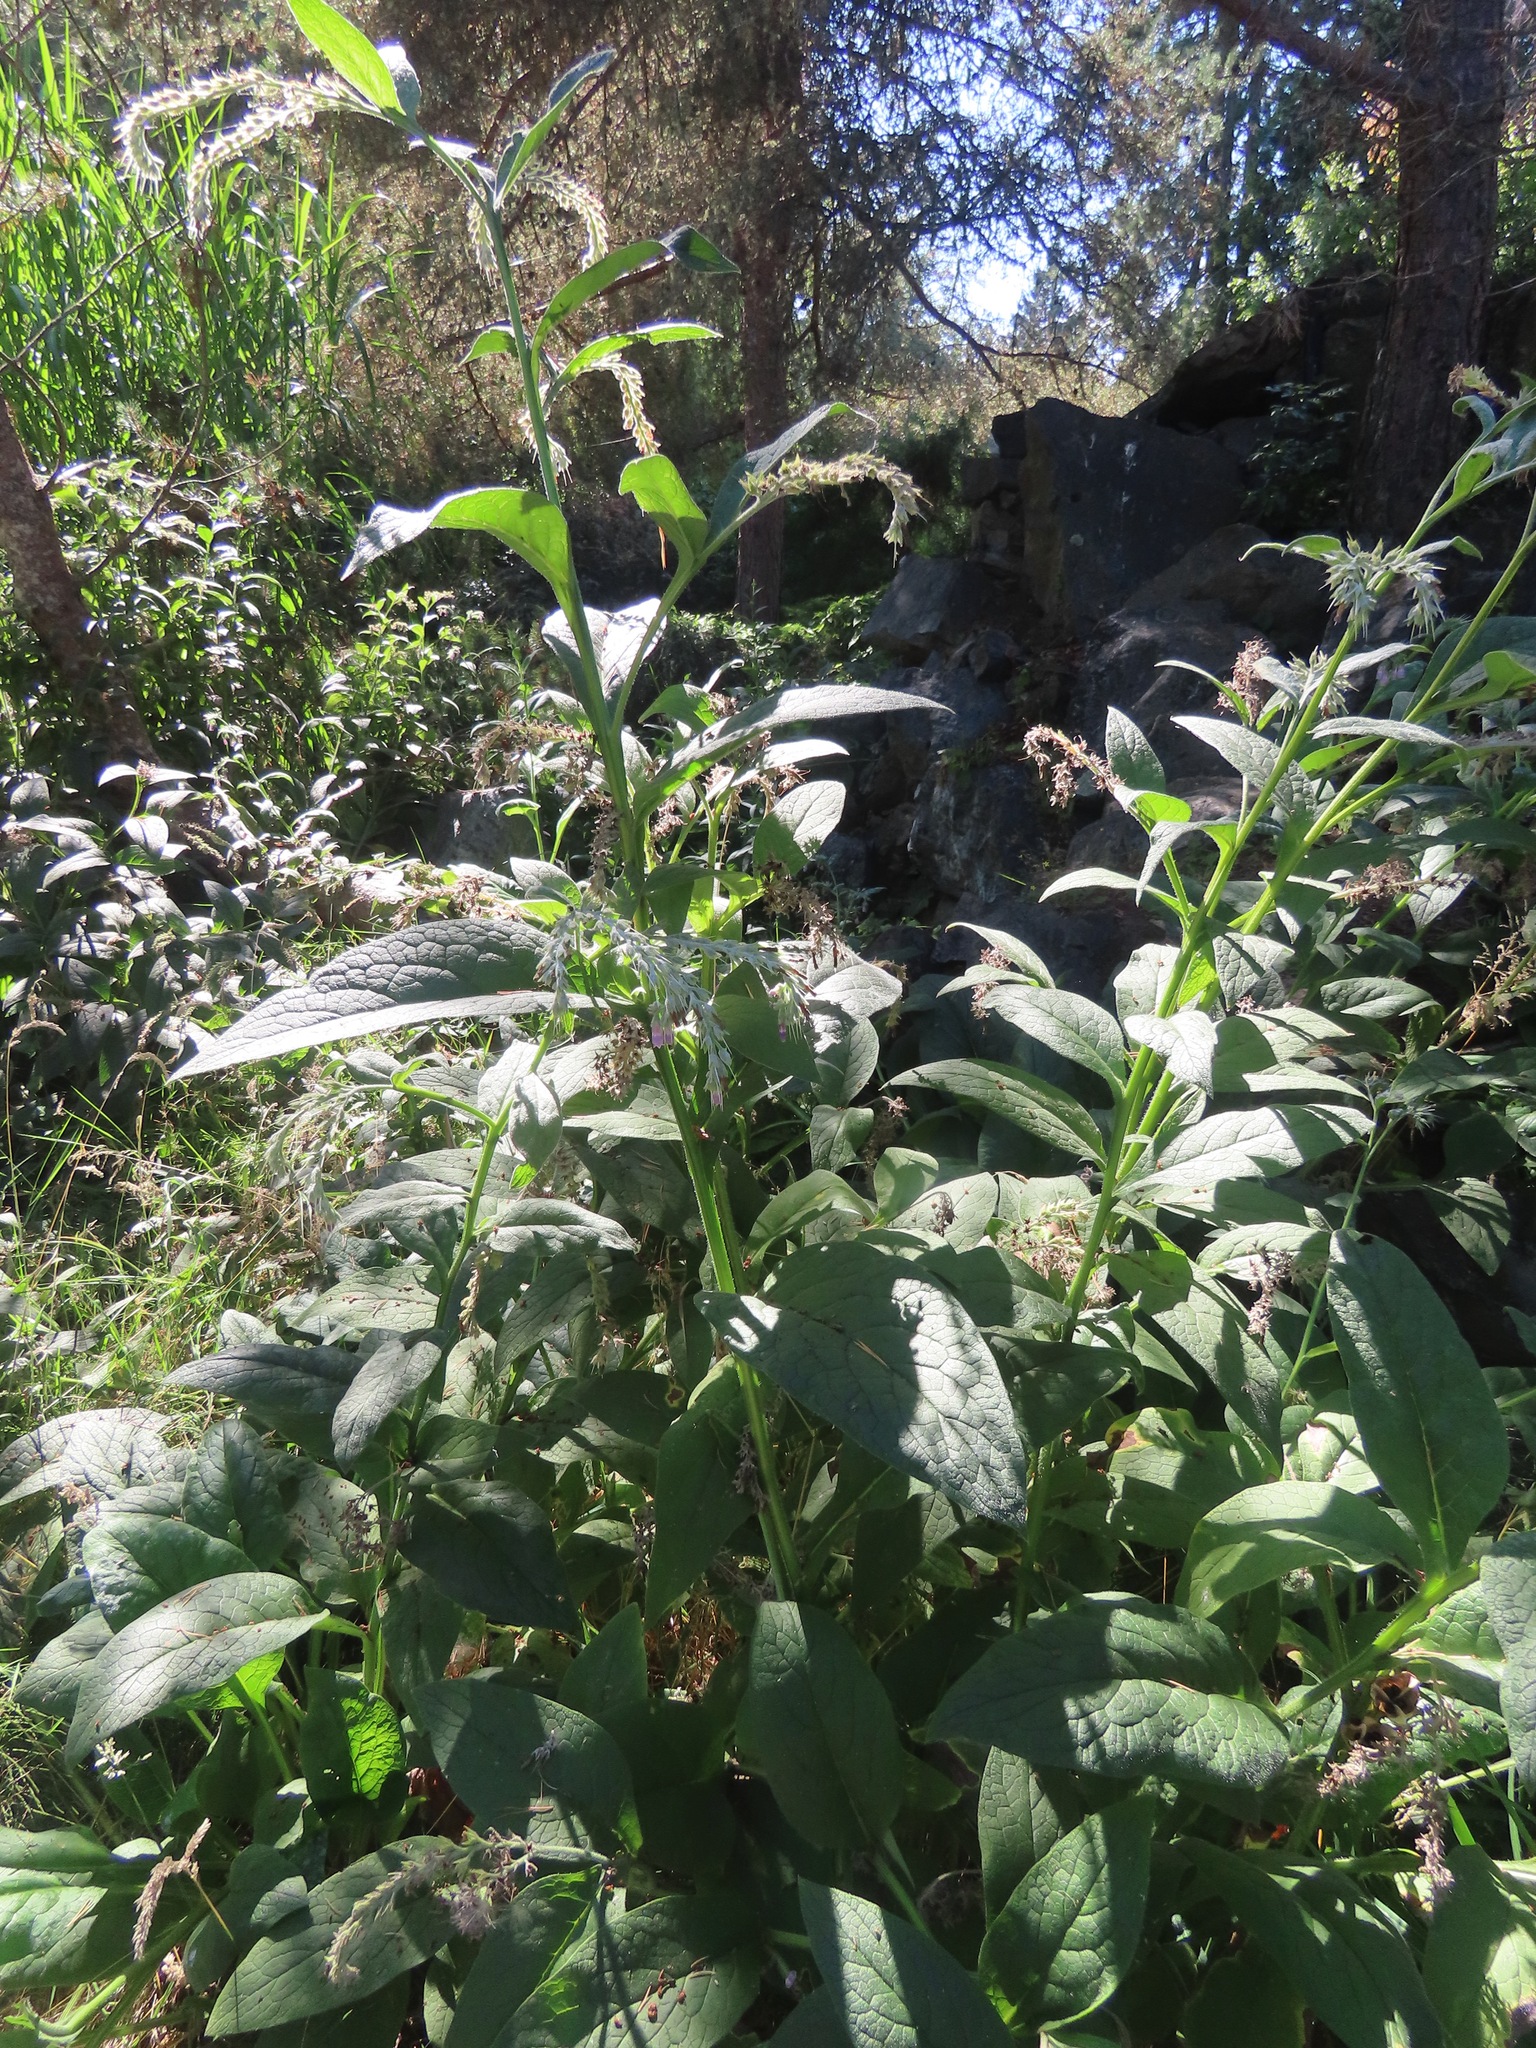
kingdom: Plantae
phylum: Tracheophyta
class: Magnoliopsida
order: Boraginales
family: Boraginaceae
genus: Symphytum
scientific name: Symphytum officinale
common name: Common comfrey
